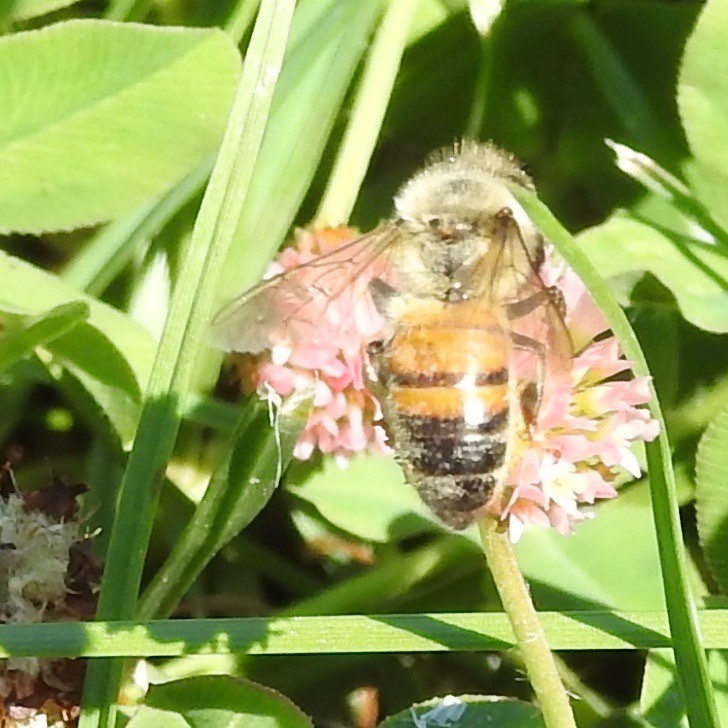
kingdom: Animalia
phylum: Arthropoda
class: Insecta
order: Hymenoptera
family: Apidae
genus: Apis
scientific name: Apis mellifera
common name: Honey bee
